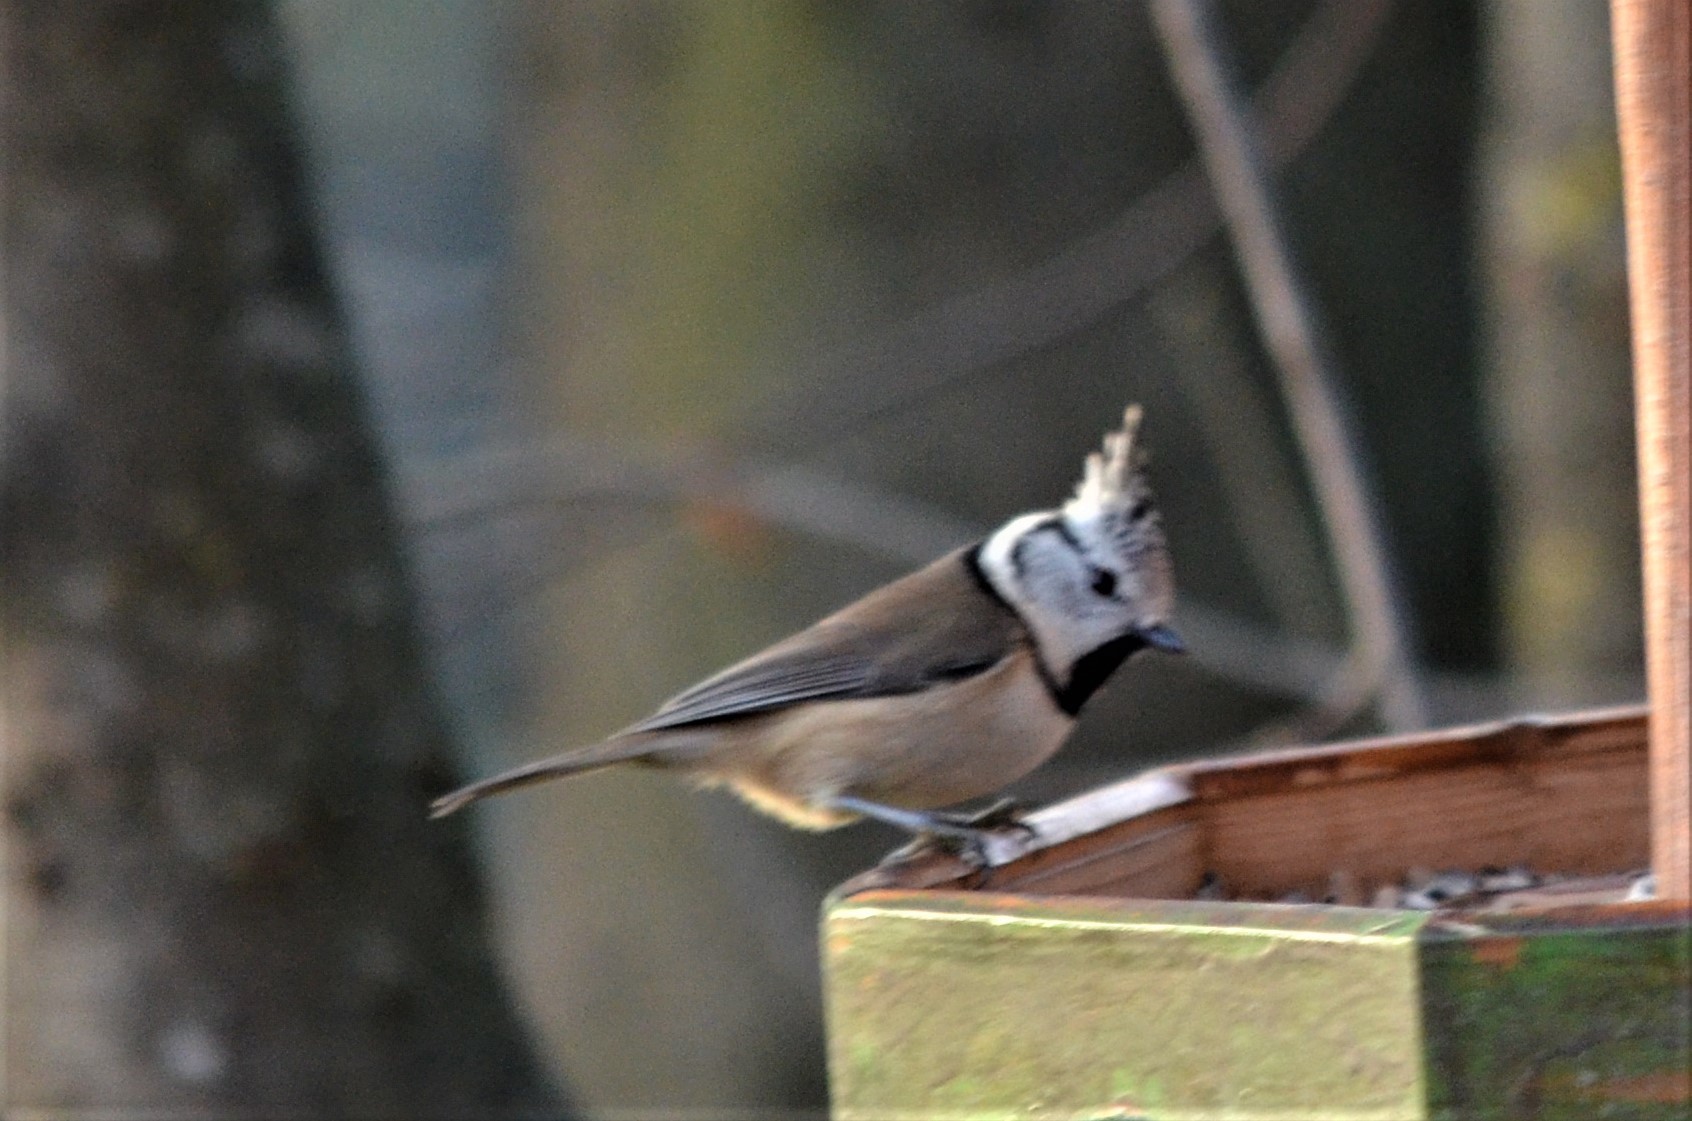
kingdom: Animalia
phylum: Chordata
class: Aves
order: Passeriformes
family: Paridae
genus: Lophophanes
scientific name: Lophophanes cristatus
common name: European crested tit
